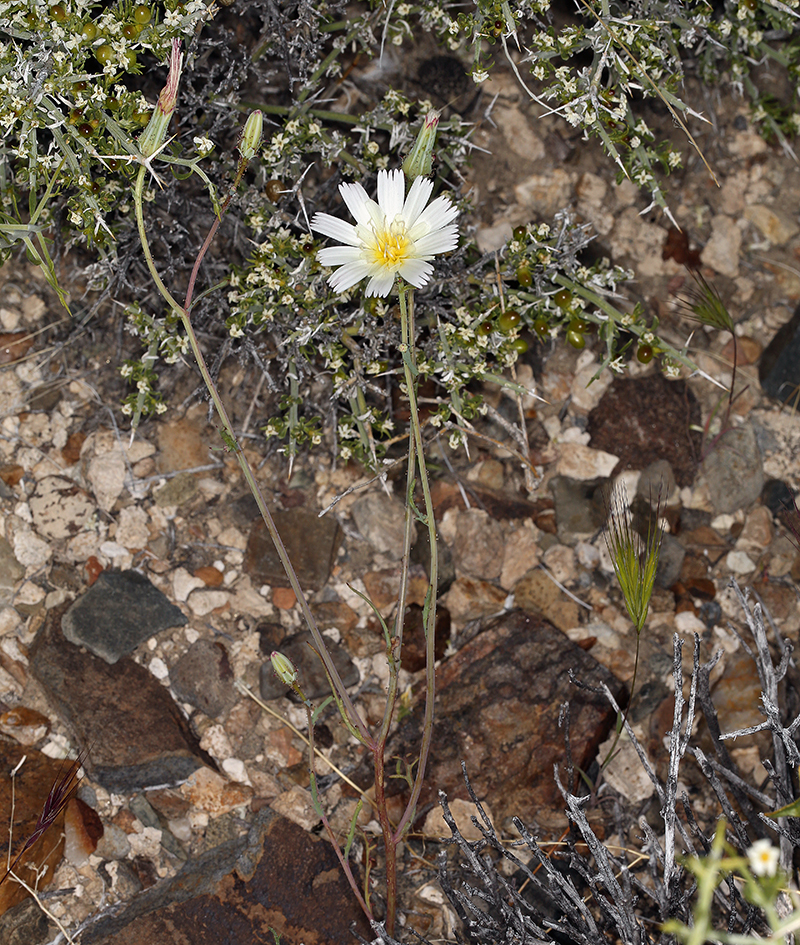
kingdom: Plantae
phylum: Tracheophyta
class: Magnoliopsida
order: Asterales
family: Asteraceae
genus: Calycoseris
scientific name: Calycoseris wrightii
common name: White tackstem
